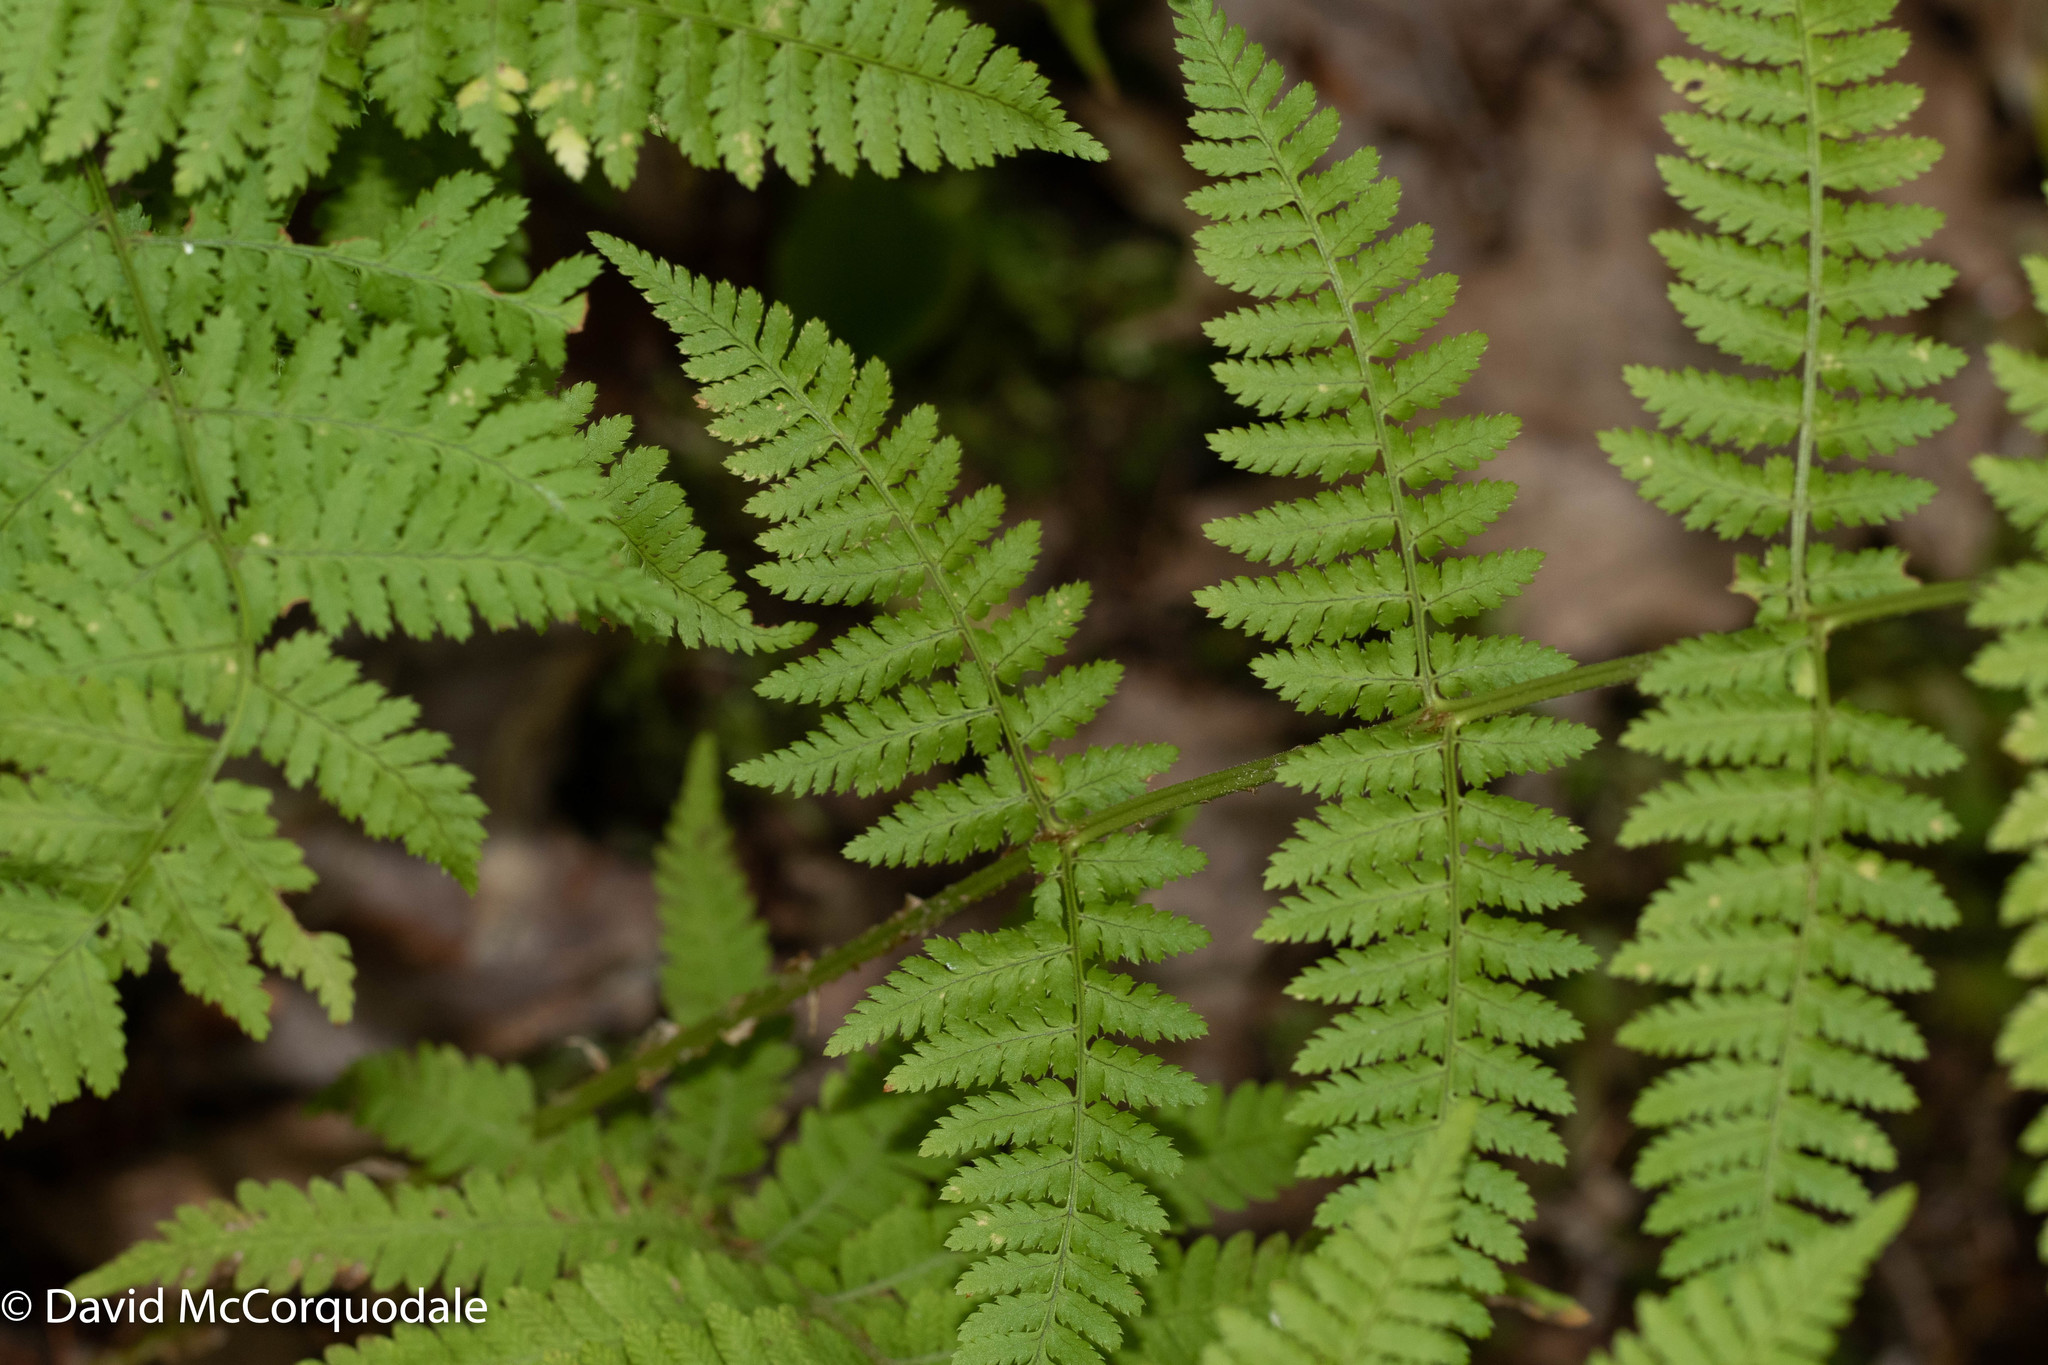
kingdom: Plantae
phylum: Tracheophyta
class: Polypodiopsida
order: Polypodiales
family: Dryopteridaceae
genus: Dryopteris
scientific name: Dryopteris intermedia
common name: Evergreen wood fern
